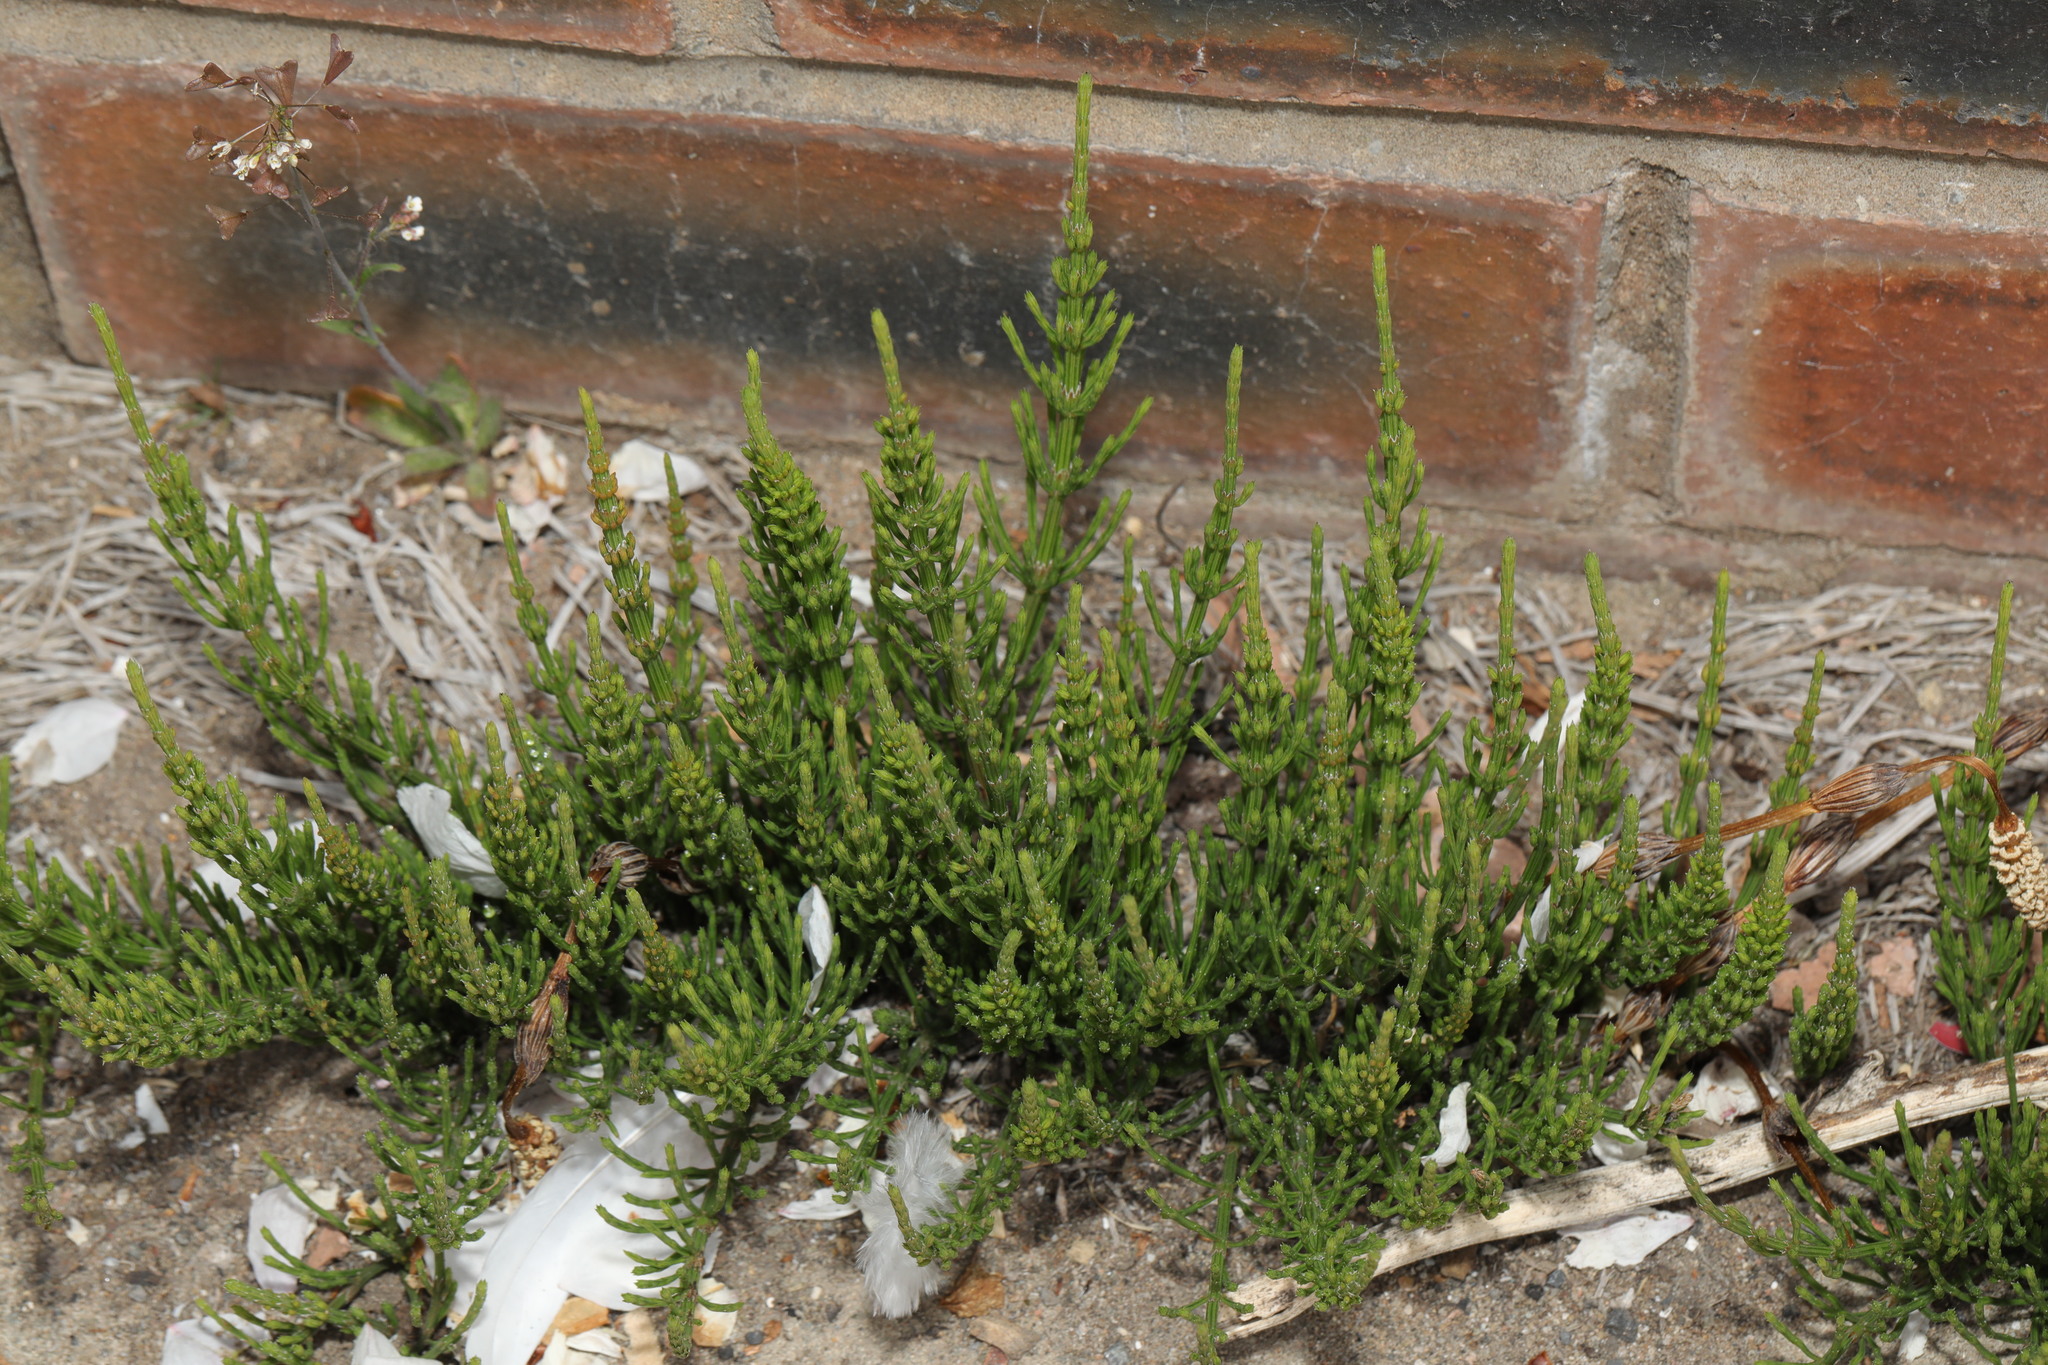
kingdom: Plantae
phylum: Tracheophyta
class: Polypodiopsida
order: Equisetales
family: Equisetaceae
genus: Equisetum
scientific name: Equisetum arvense
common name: Field horsetail
